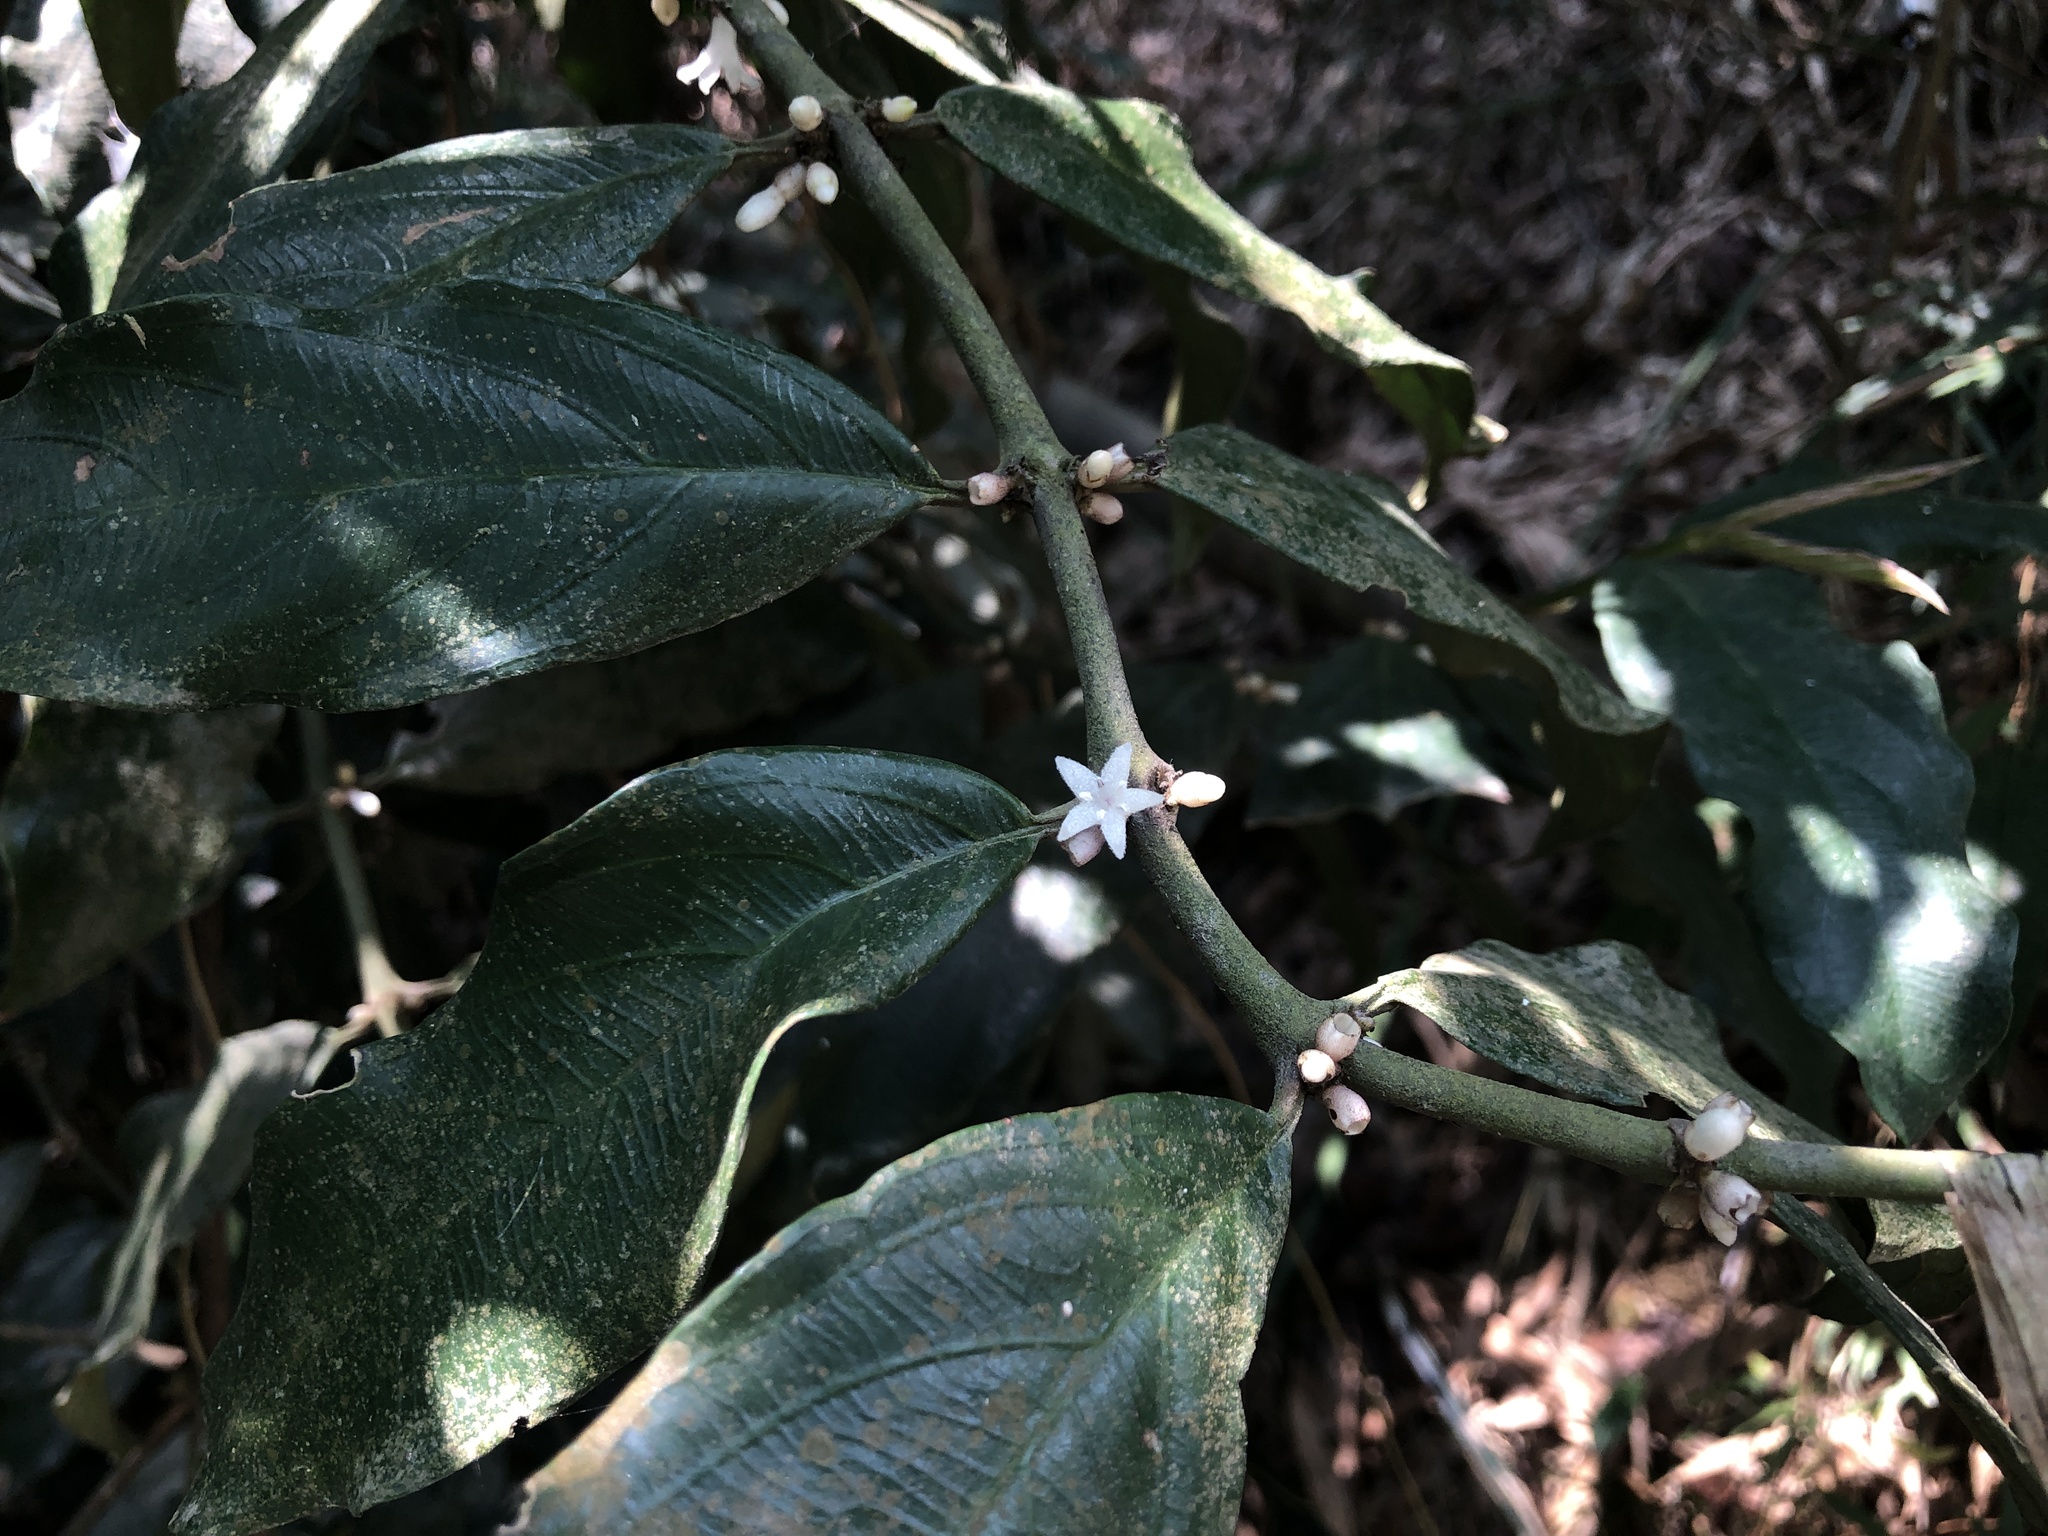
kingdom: Plantae
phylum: Tracheophyta
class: Magnoliopsida
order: Gentianales
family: Rubiaceae
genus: Lasianthus
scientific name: Lasianthus verticillatus
